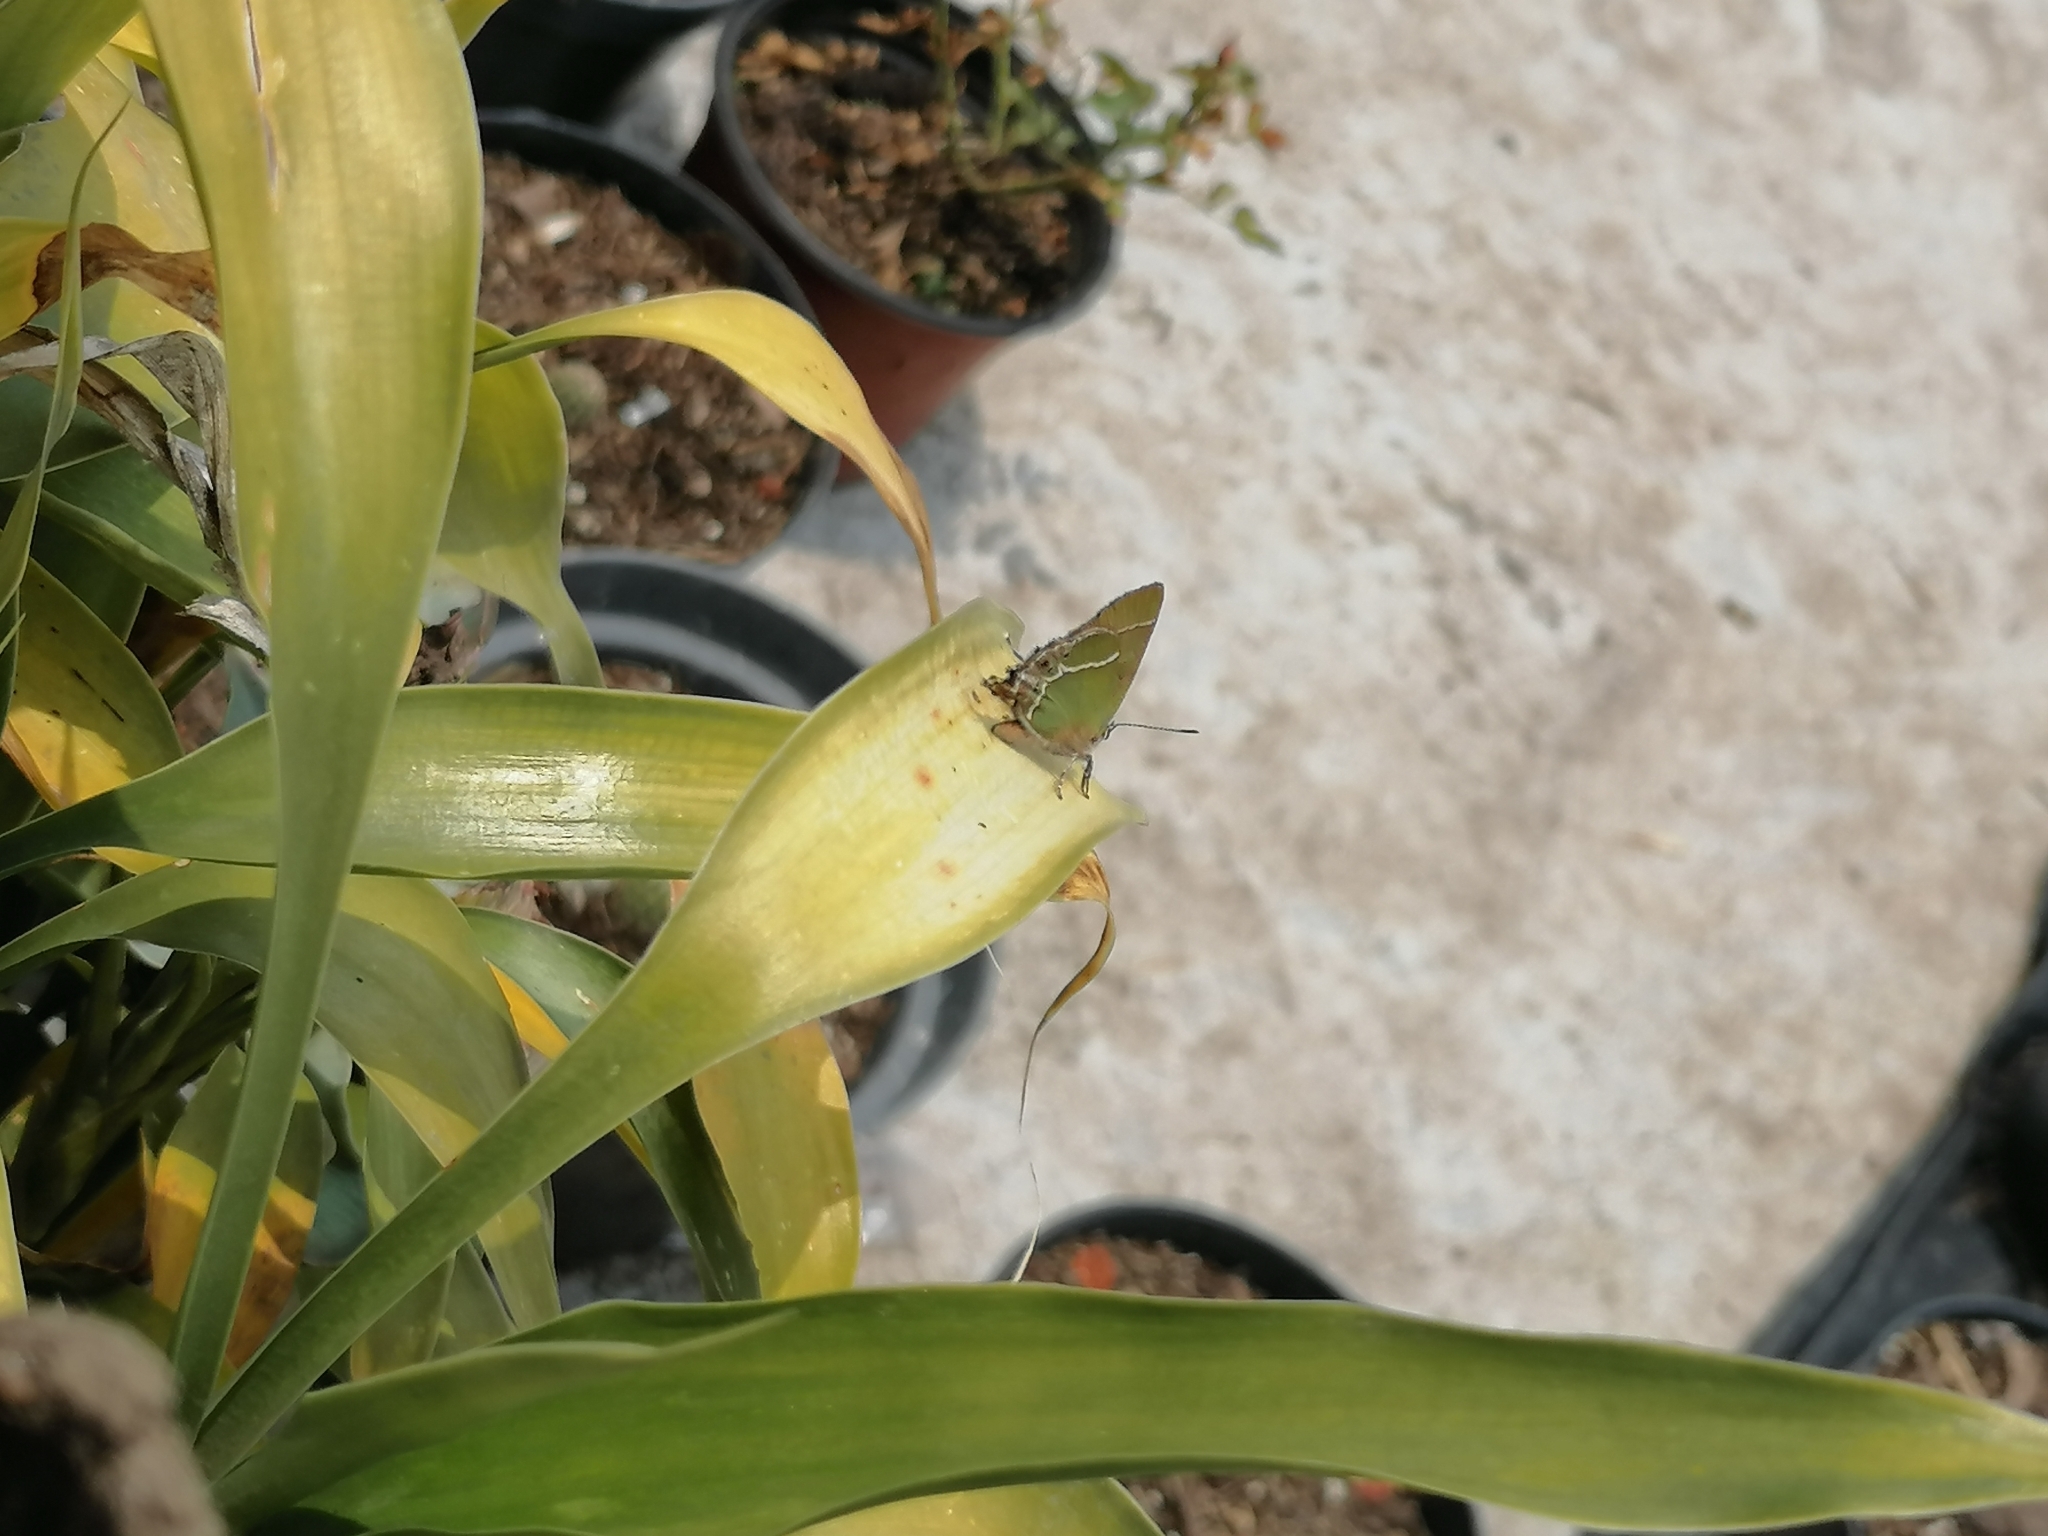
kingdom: Animalia
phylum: Arthropoda
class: Insecta
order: Lepidoptera
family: Lycaenidae
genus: Xamia
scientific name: Xamia xami
